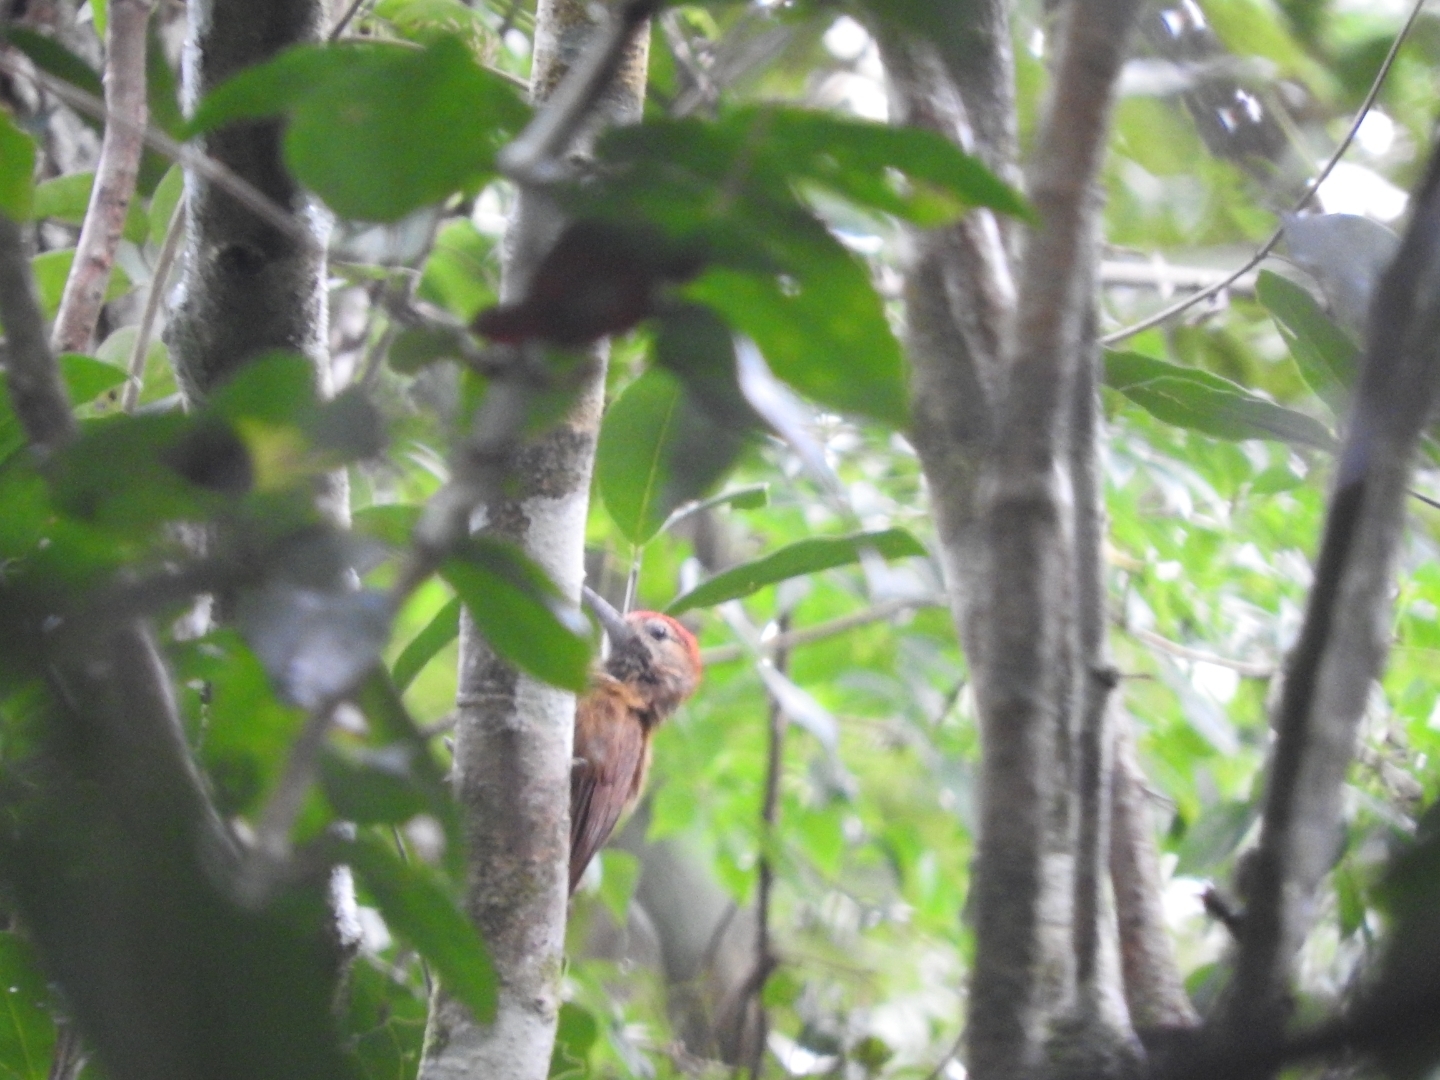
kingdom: Animalia
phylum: Chordata
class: Aves
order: Piciformes
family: Picidae
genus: Leuconotopicus
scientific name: Leuconotopicus fumigatus
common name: Smoky-brown woodpecker
